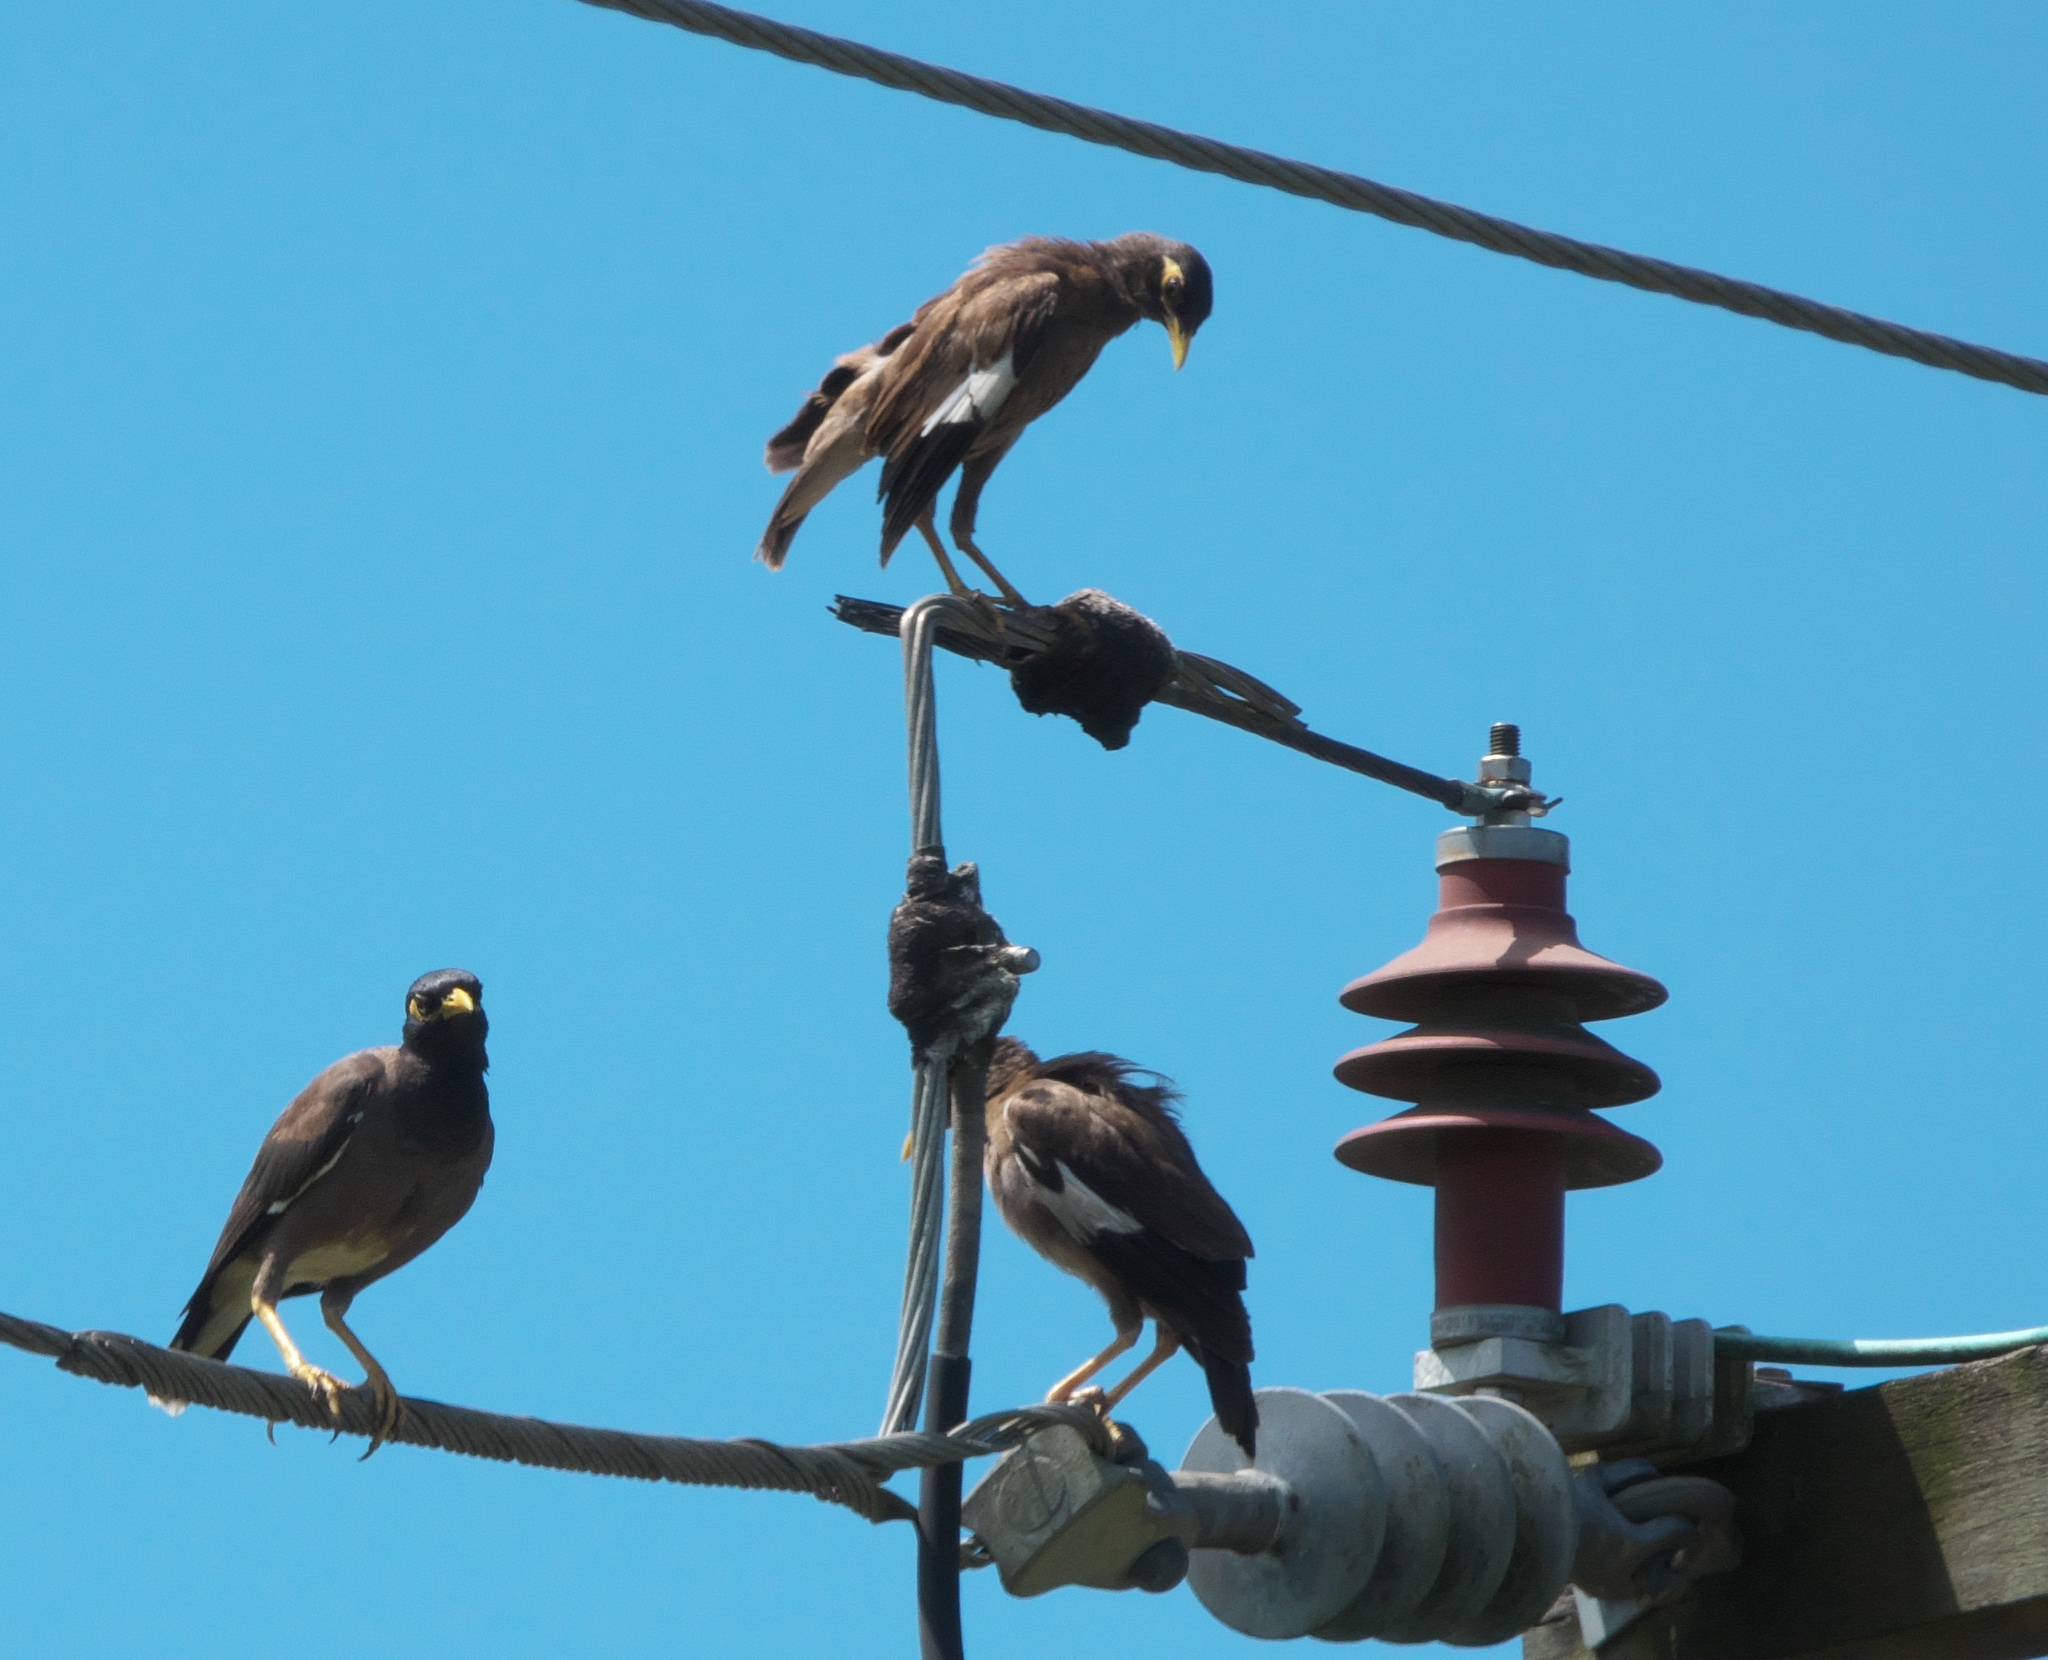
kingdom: Animalia
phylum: Chordata
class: Aves
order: Passeriformes
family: Sturnidae
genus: Acridotheres
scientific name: Acridotheres tristis
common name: Common myna
